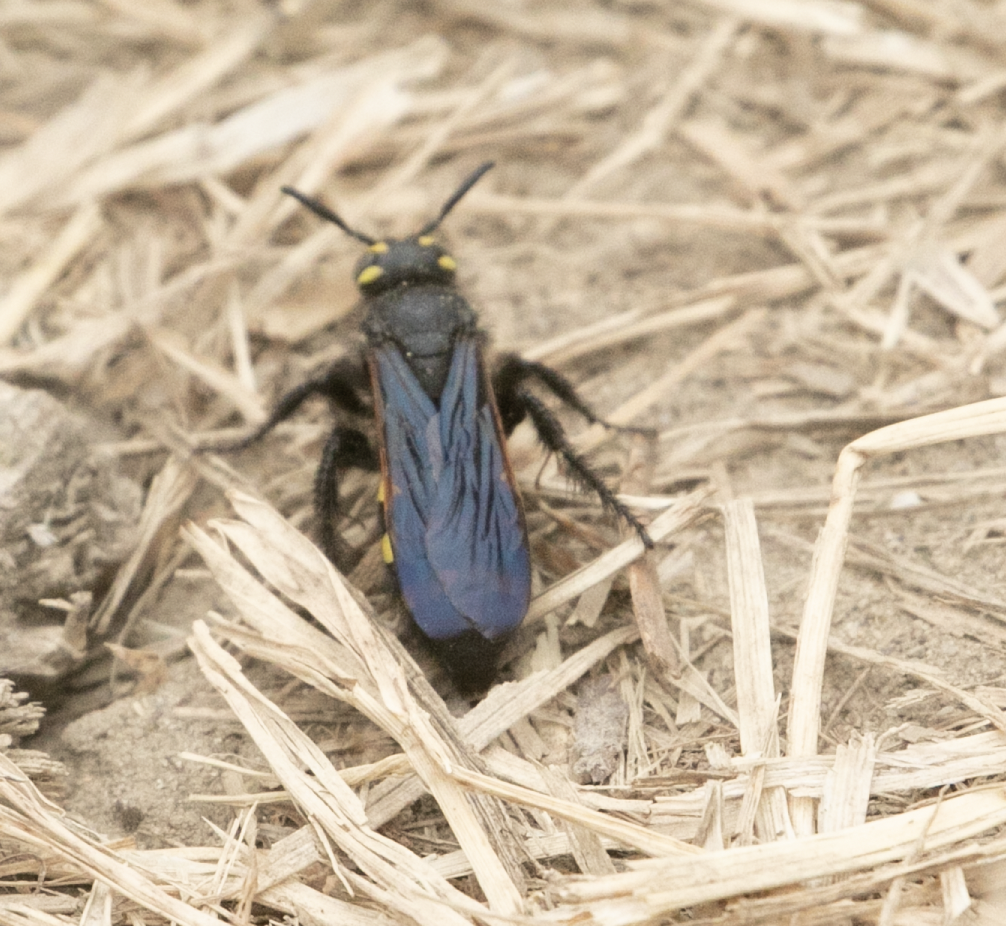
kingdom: Animalia
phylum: Arthropoda
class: Insecta
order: Hymenoptera
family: Vespidae
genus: Vespa
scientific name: Vespa sexmaculata
